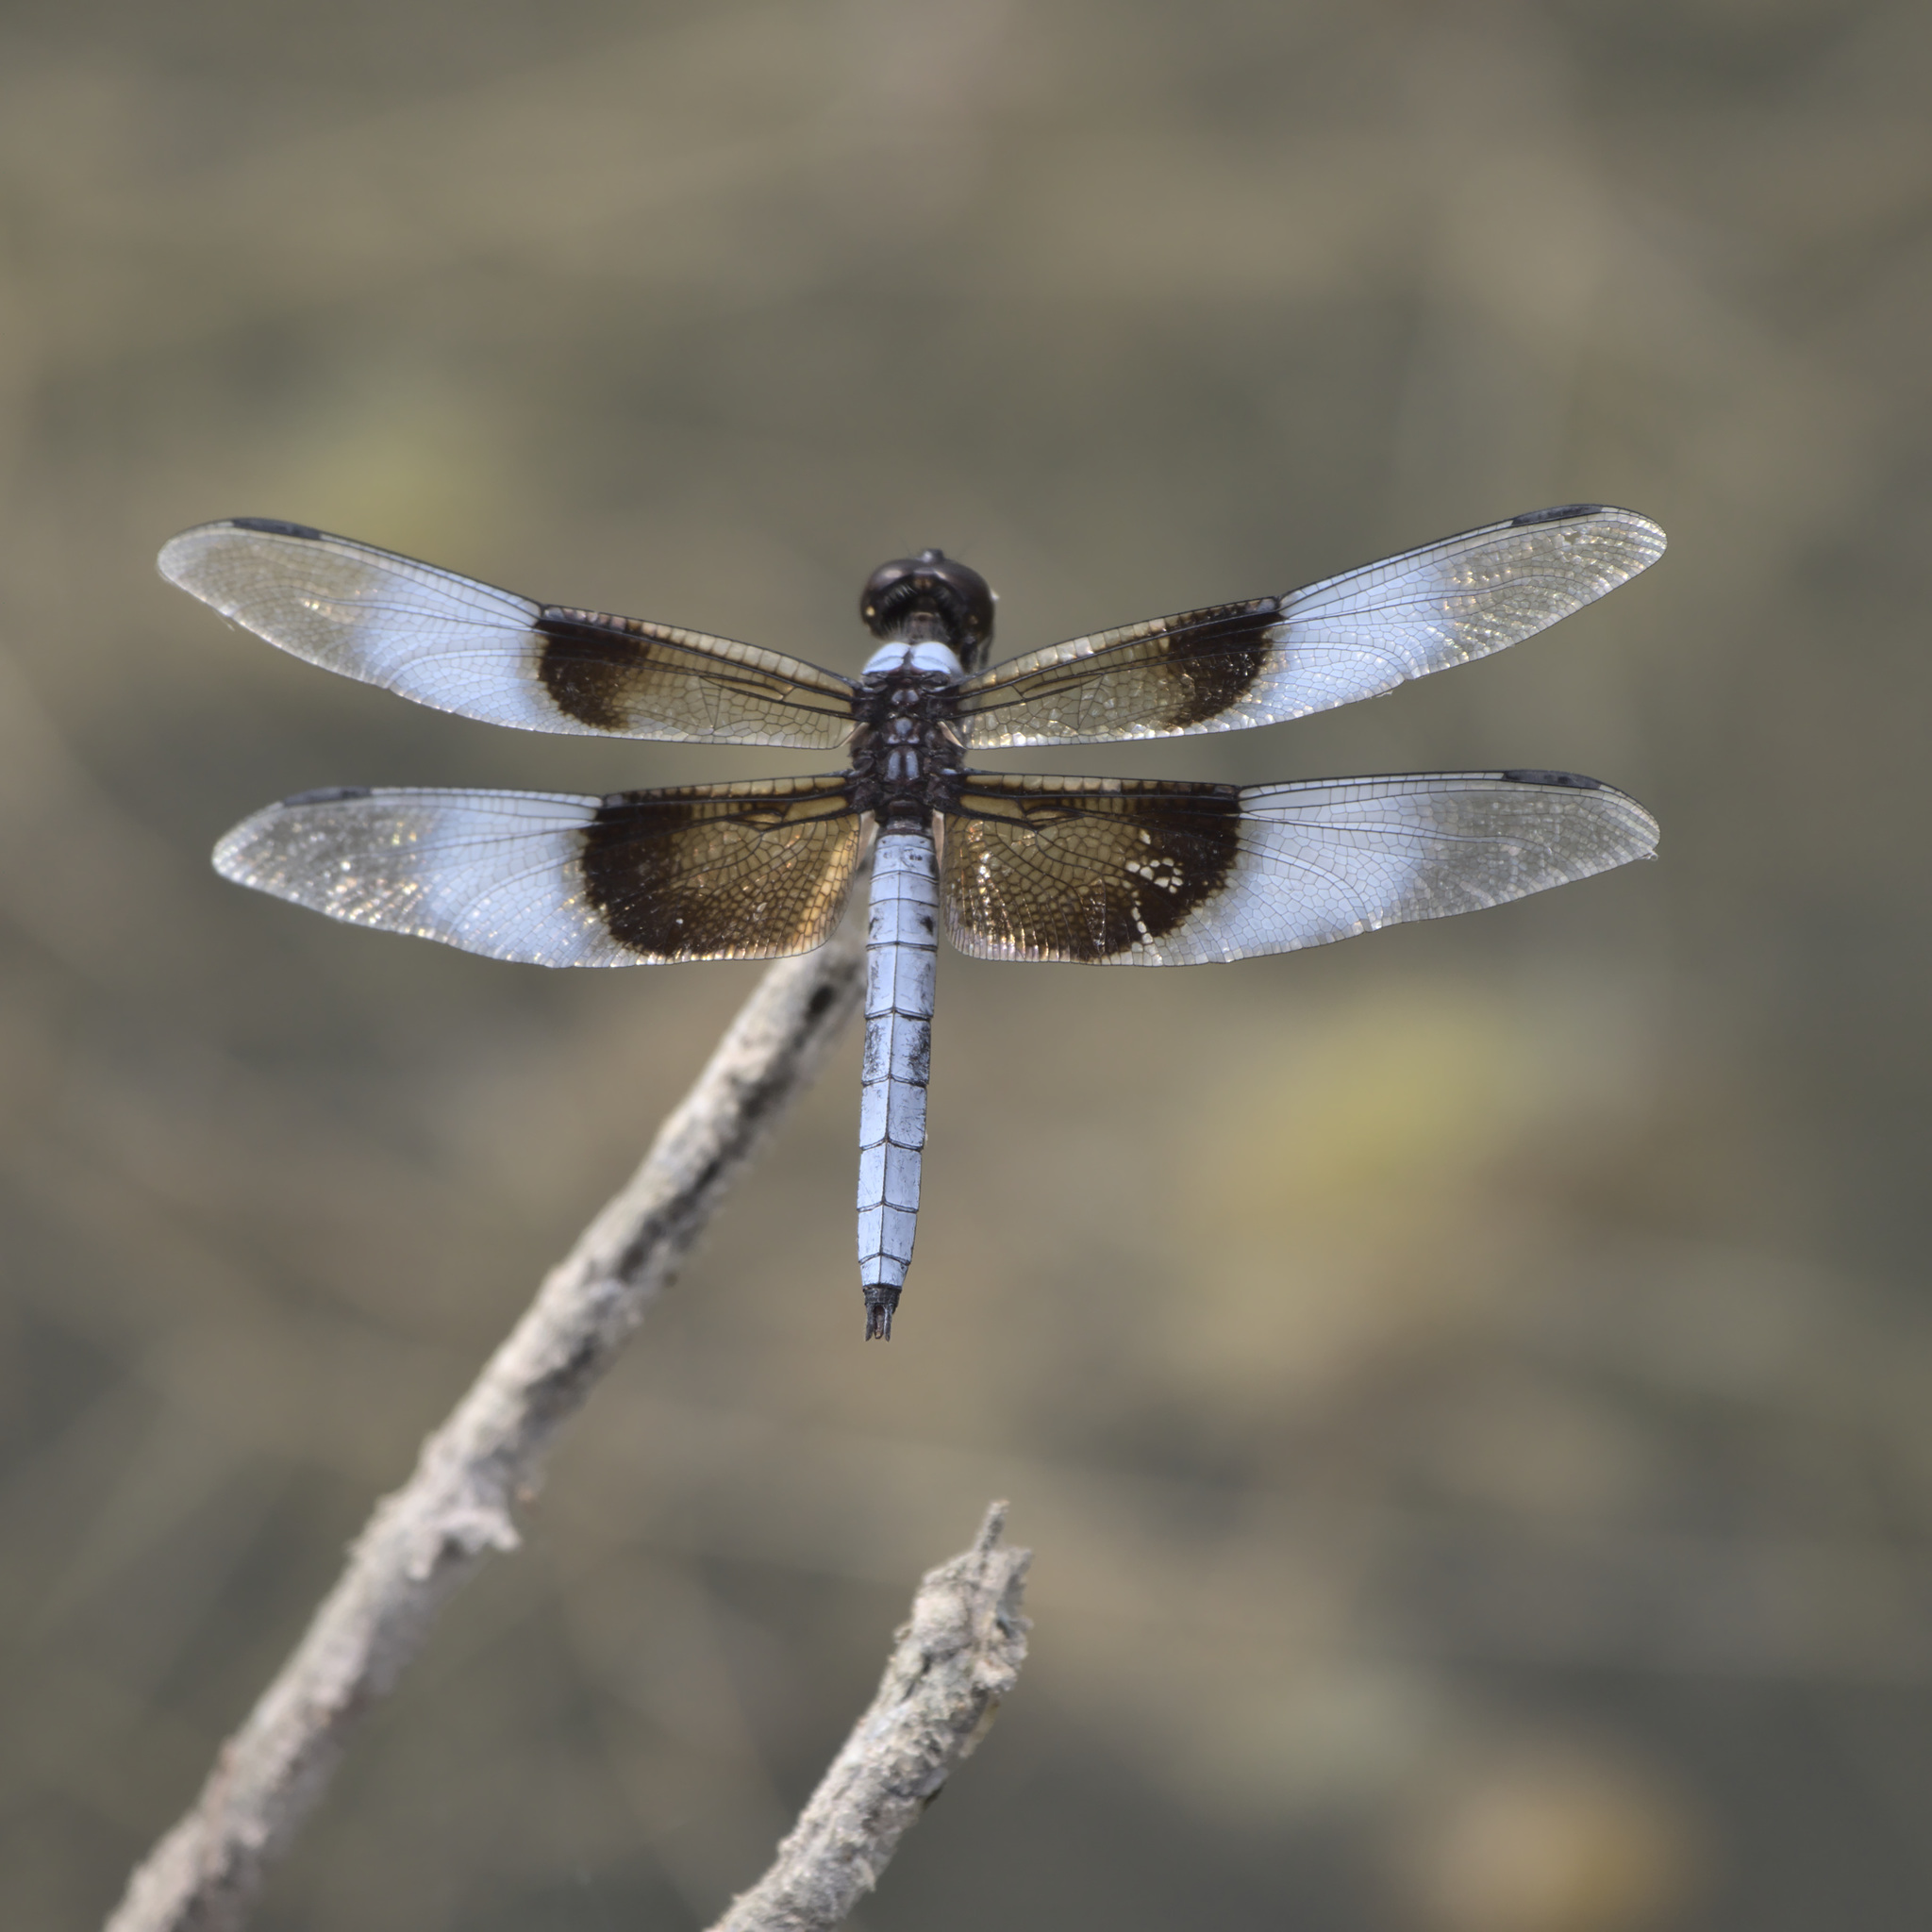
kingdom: Animalia
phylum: Arthropoda
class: Insecta
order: Odonata
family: Libellulidae
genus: Libellula
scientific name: Libellula luctuosa
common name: Widow skimmer
